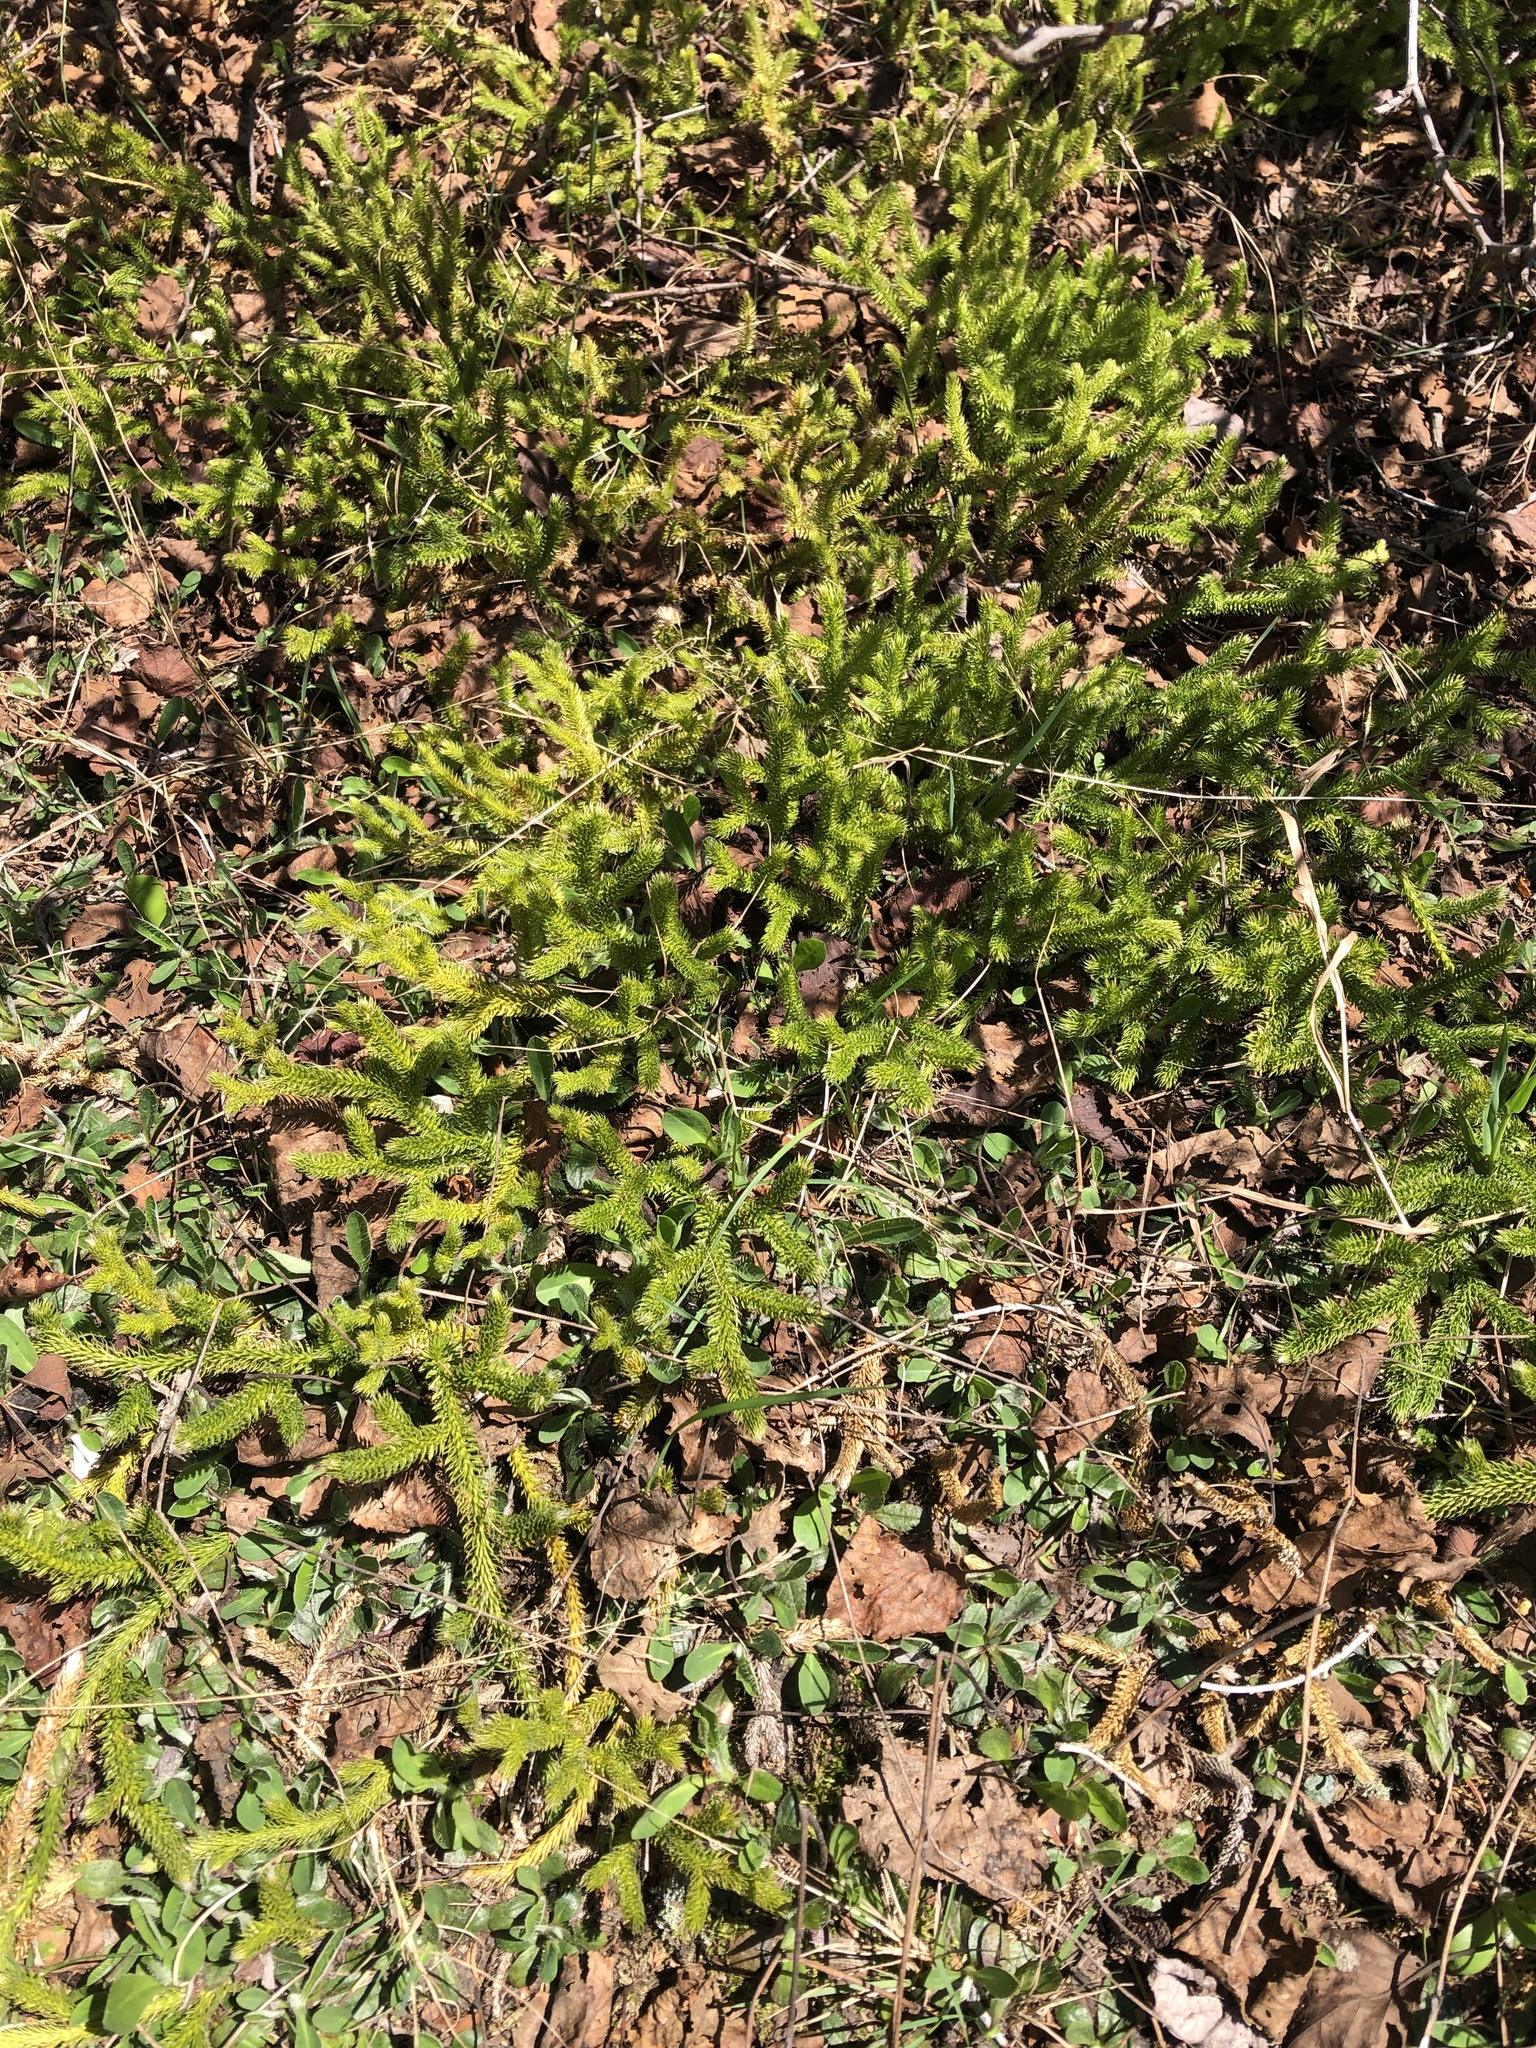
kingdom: Plantae
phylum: Tracheophyta
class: Lycopodiopsida
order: Lycopodiales
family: Lycopodiaceae
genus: Lycopodium
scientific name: Lycopodium clavatum
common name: Stag's-horn clubmoss
